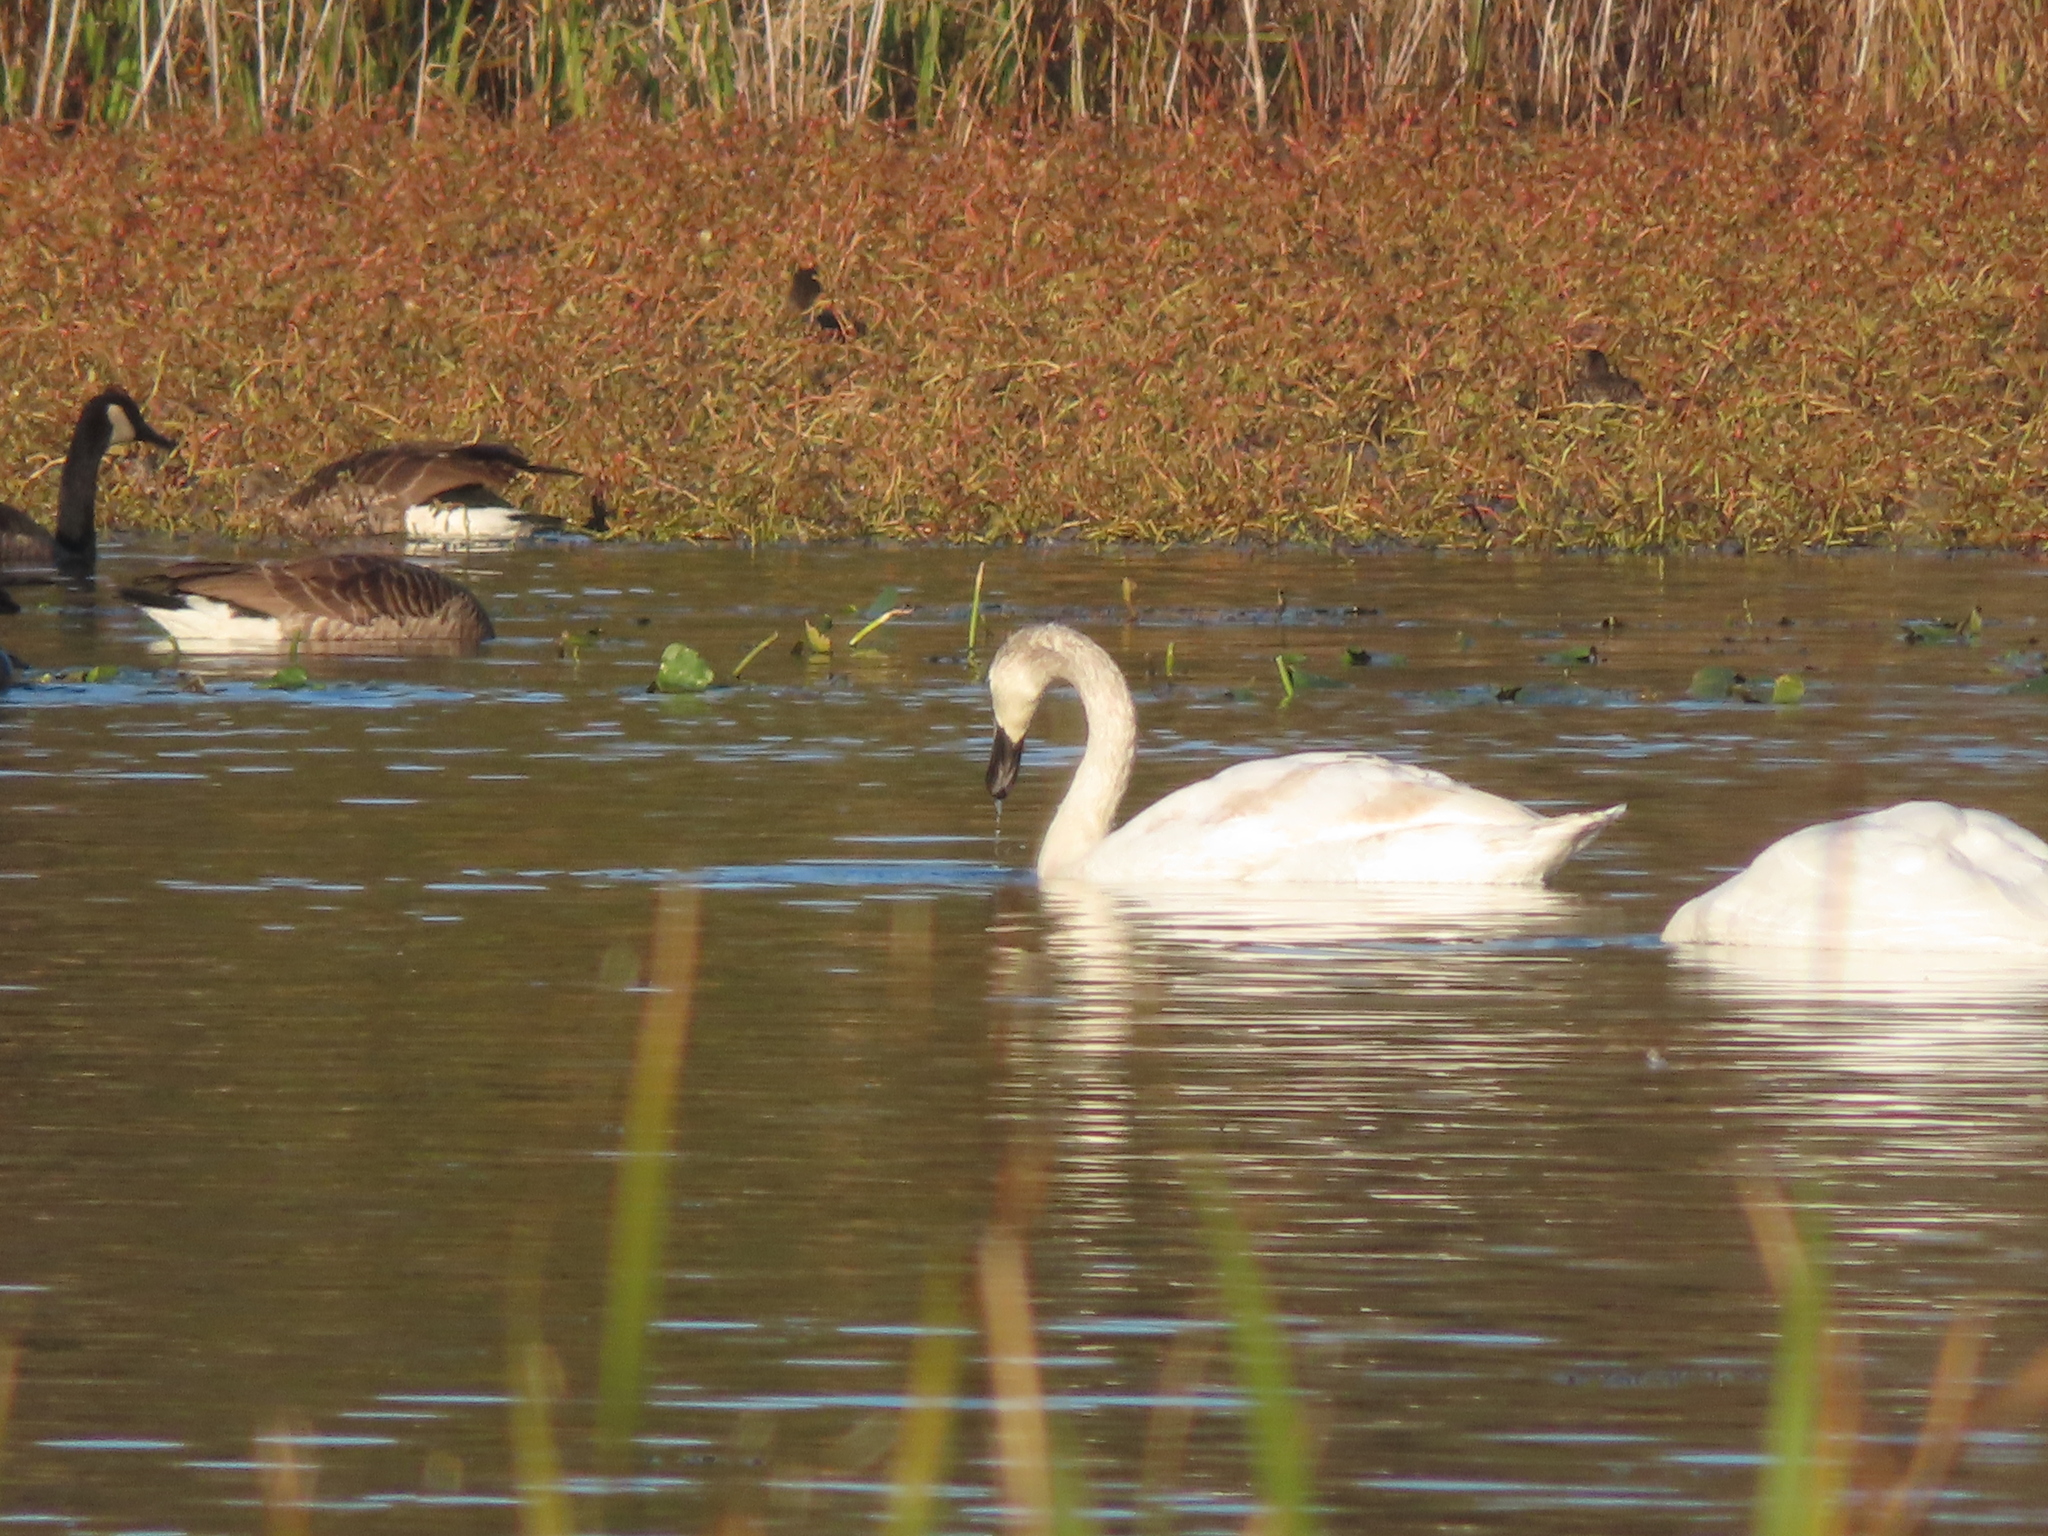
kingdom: Animalia
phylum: Chordata
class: Aves
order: Anseriformes
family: Anatidae
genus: Branta
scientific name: Branta canadensis
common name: Canada goose
